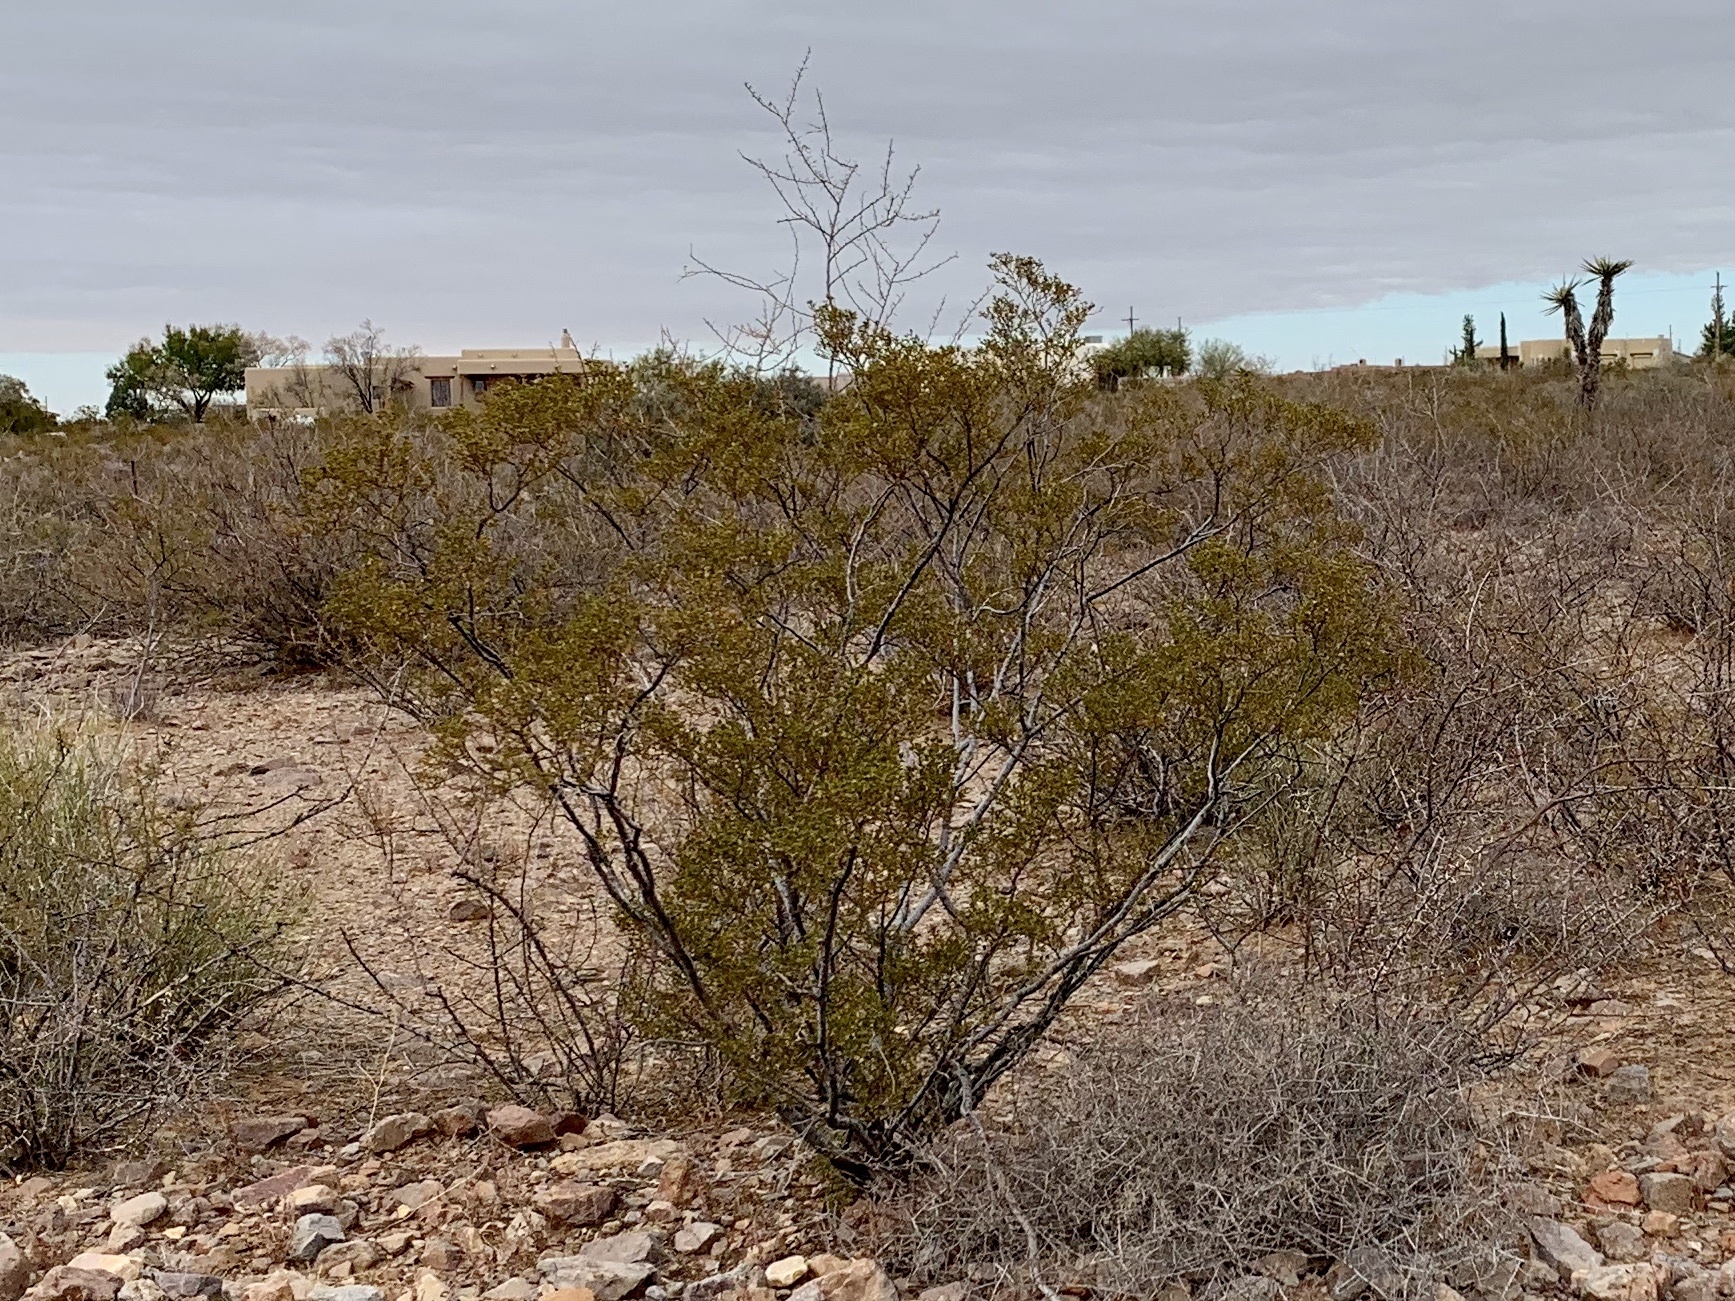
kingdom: Plantae
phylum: Tracheophyta
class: Magnoliopsida
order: Zygophyllales
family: Zygophyllaceae
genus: Larrea
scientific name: Larrea tridentata
